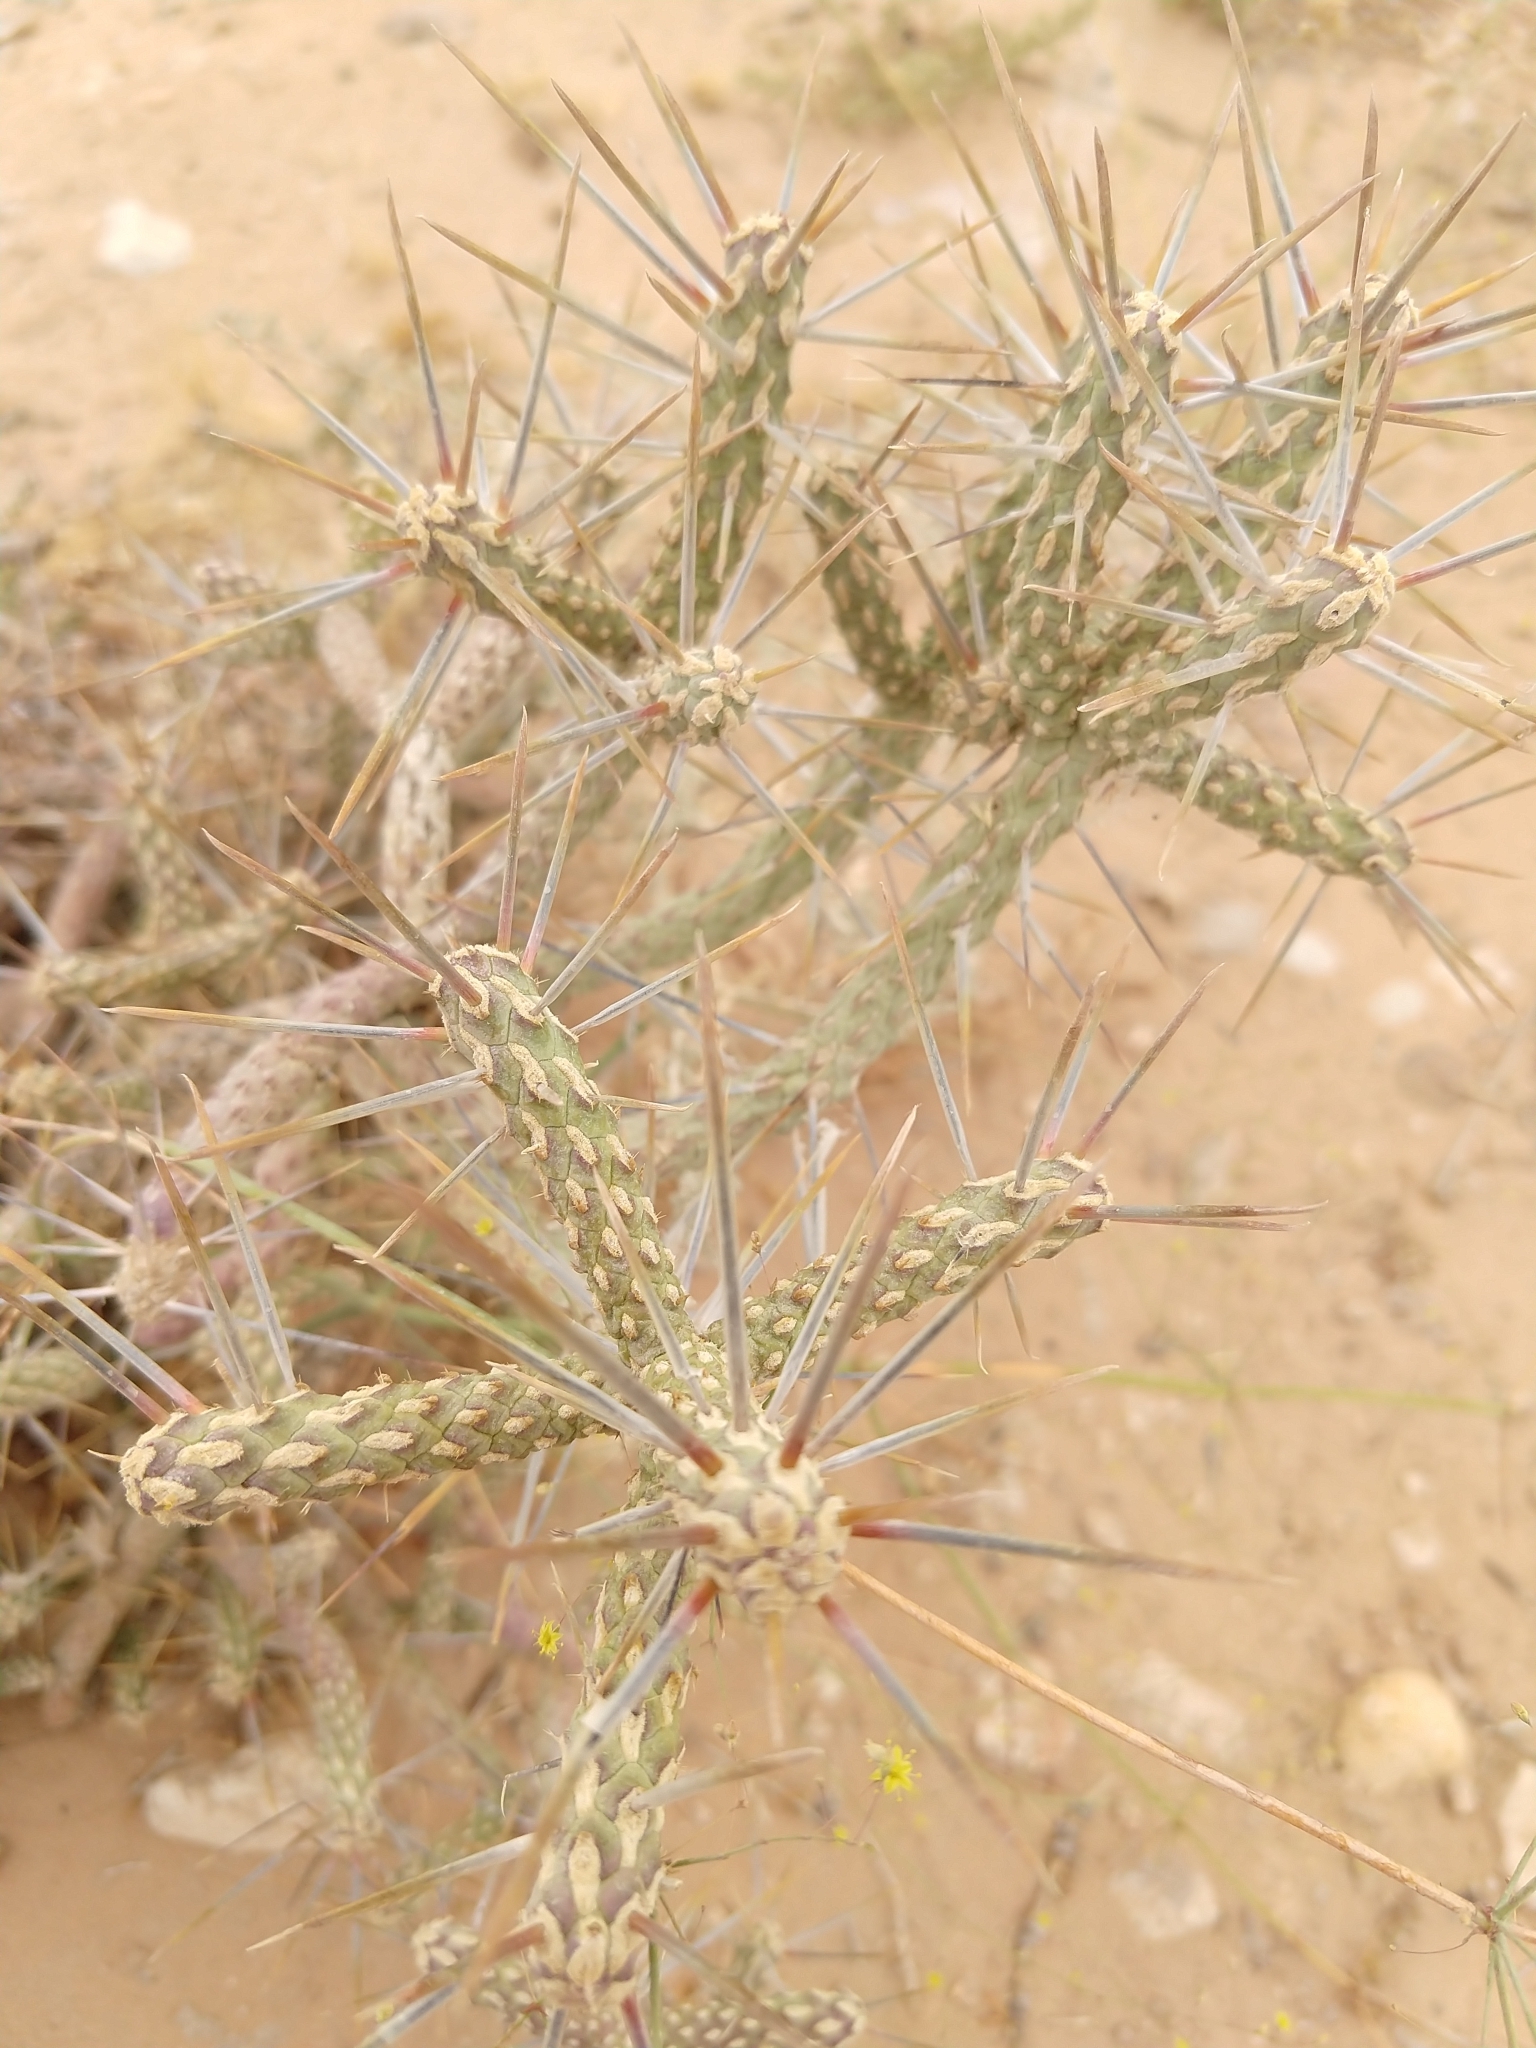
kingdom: Plantae
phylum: Tracheophyta
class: Magnoliopsida
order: Caryophyllales
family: Cactaceae
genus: Cylindropuntia
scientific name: Cylindropuntia ramosissima
